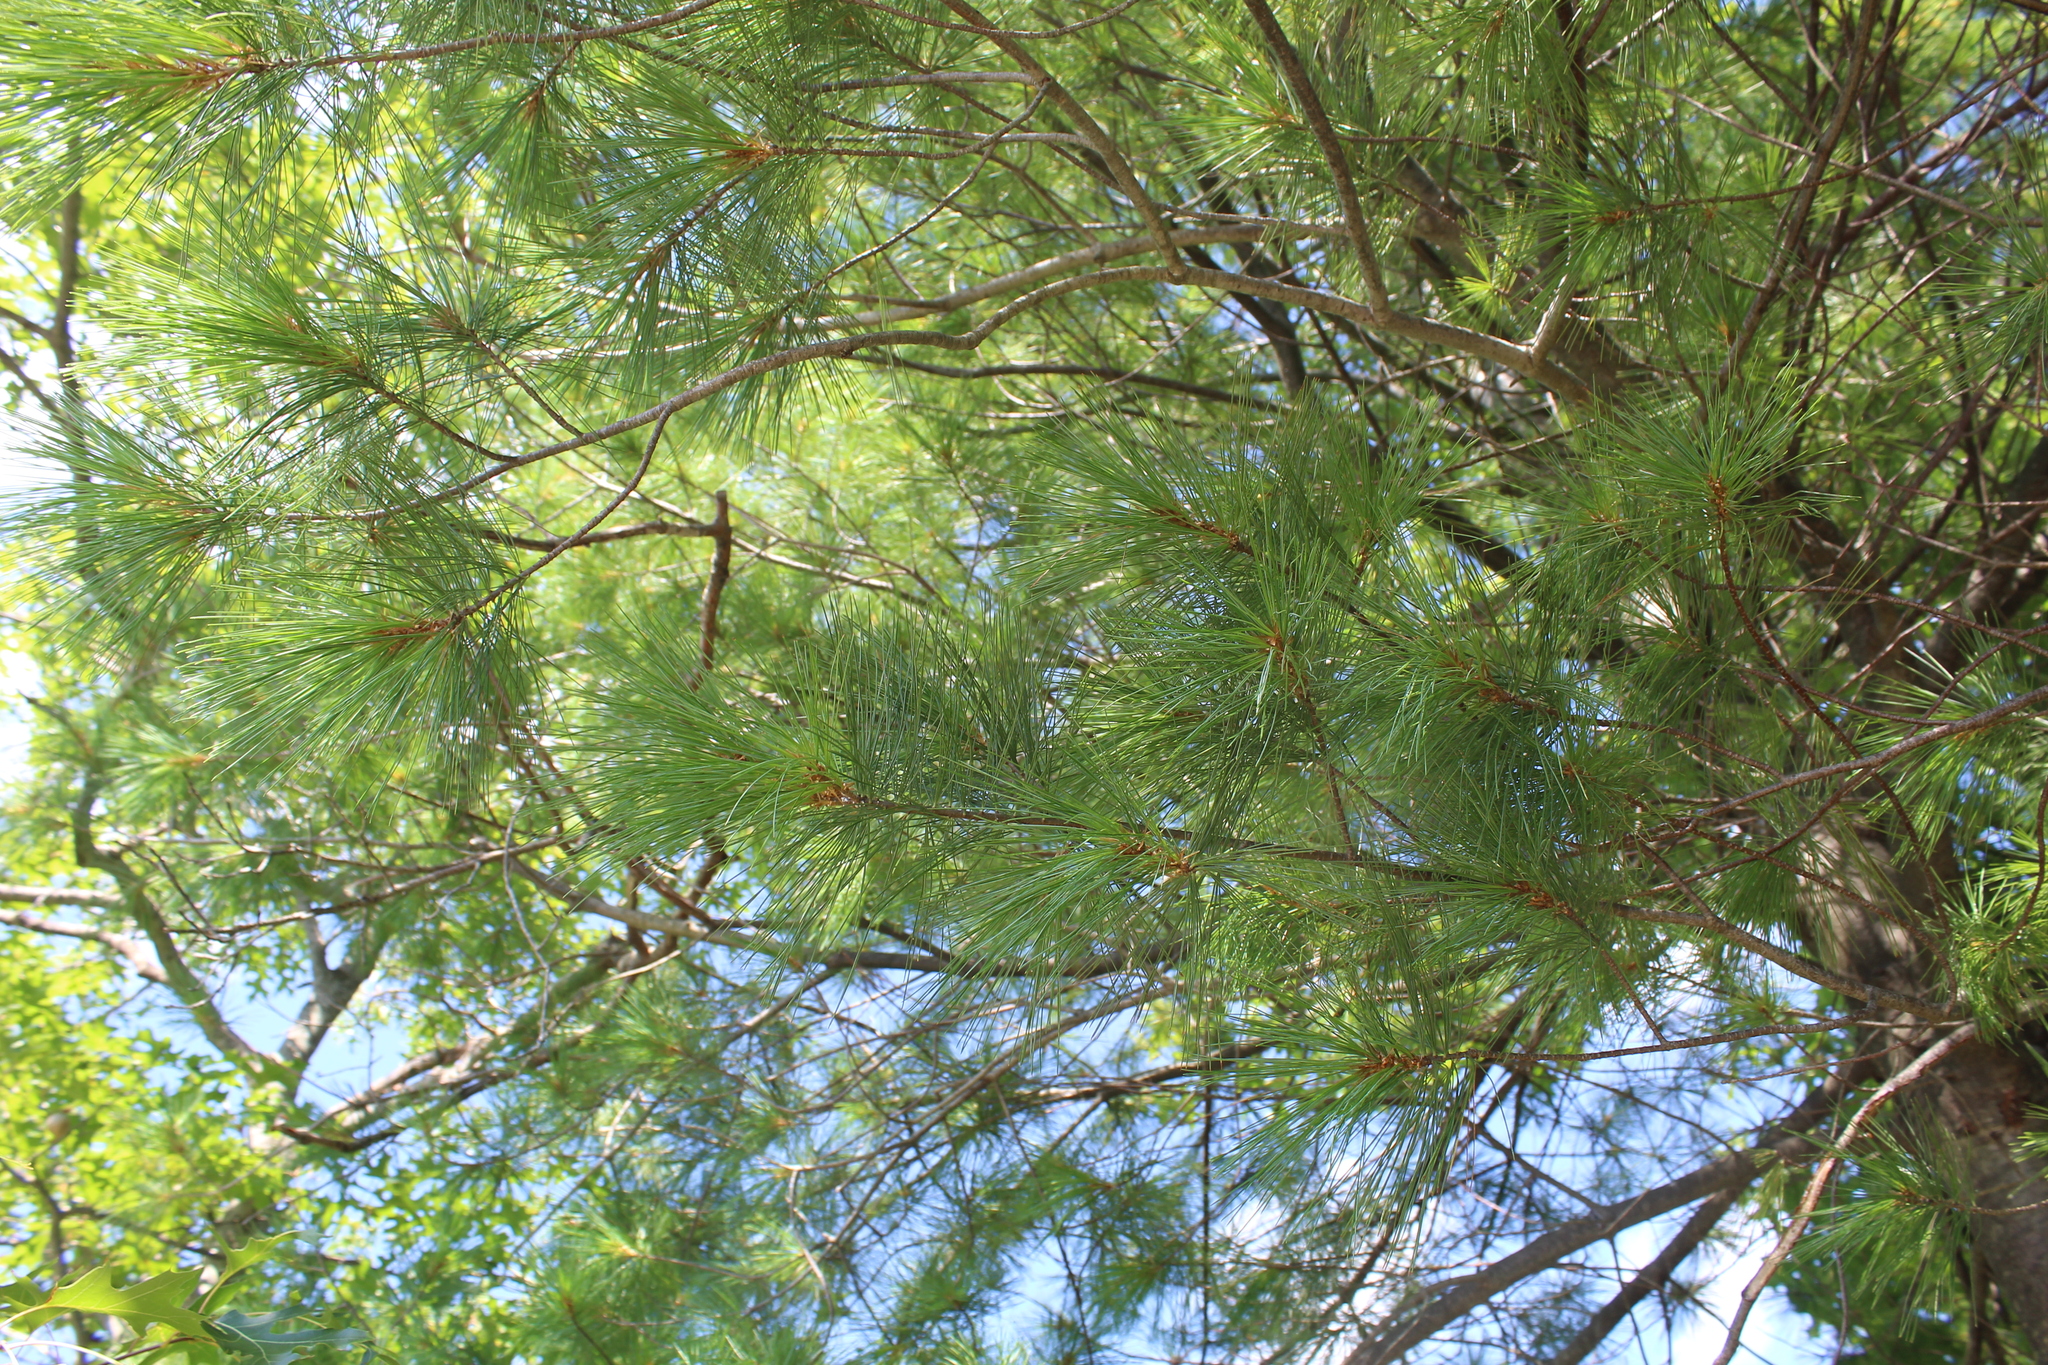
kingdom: Plantae
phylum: Tracheophyta
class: Pinopsida
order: Pinales
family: Pinaceae
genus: Pinus
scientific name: Pinus strobus
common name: Weymouth pine
